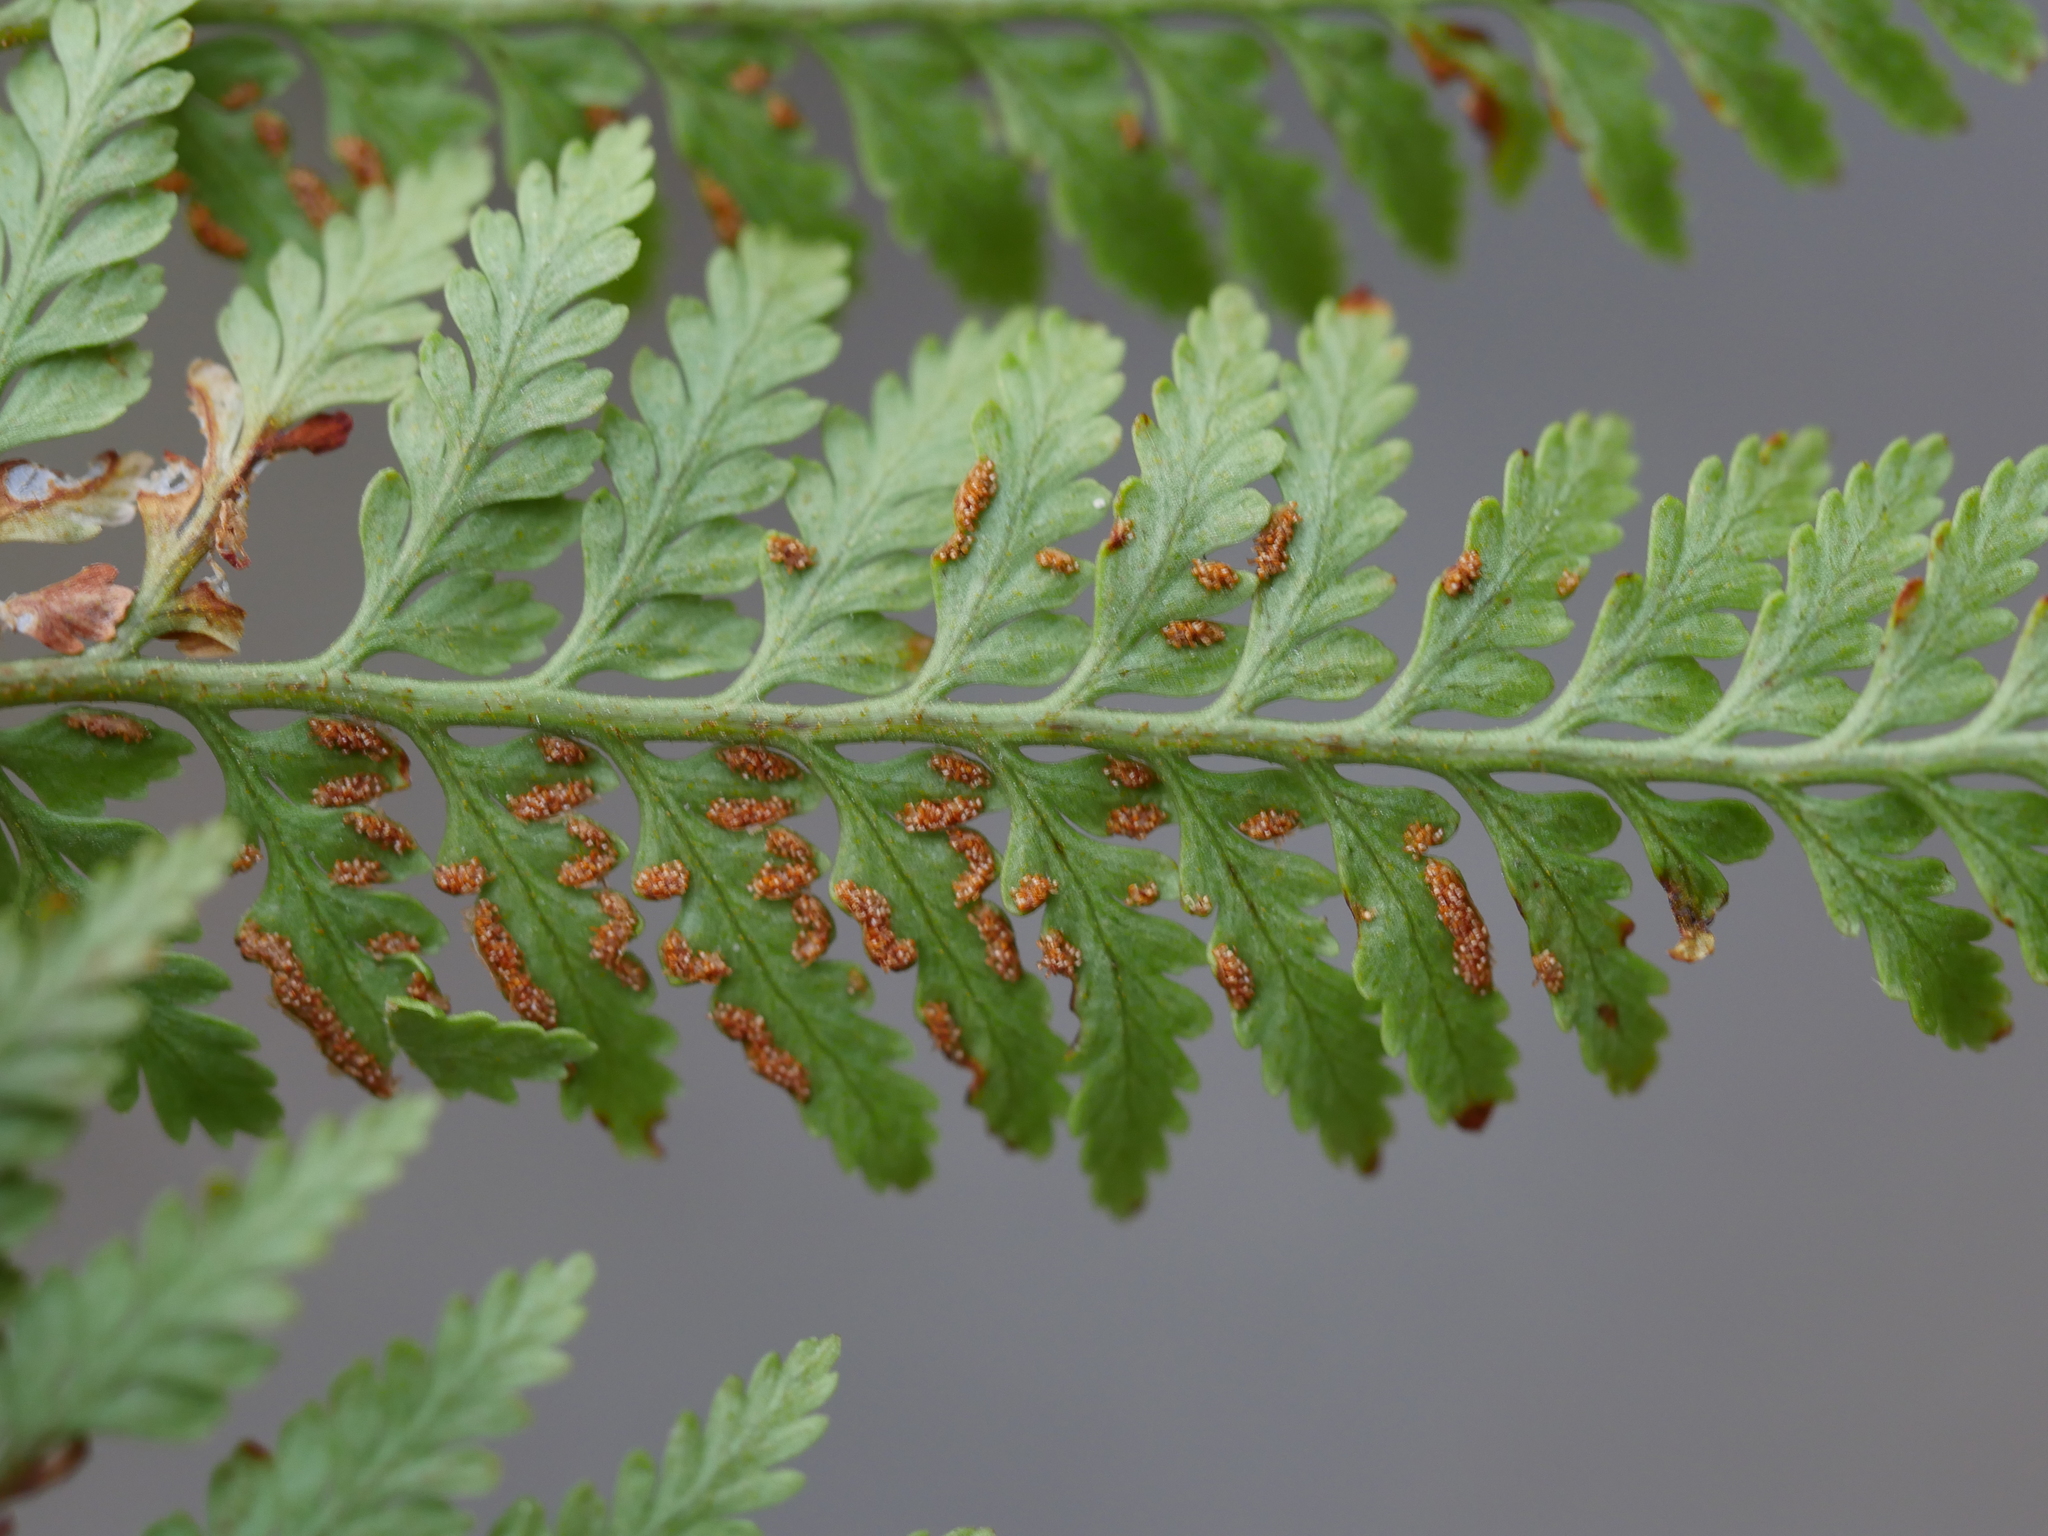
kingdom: Plantae
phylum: Tracheophyta
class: Polypodiopsida
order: Polypodiales
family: Dennstaedtiaceae
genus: Paesia
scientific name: Paesia scaberula
